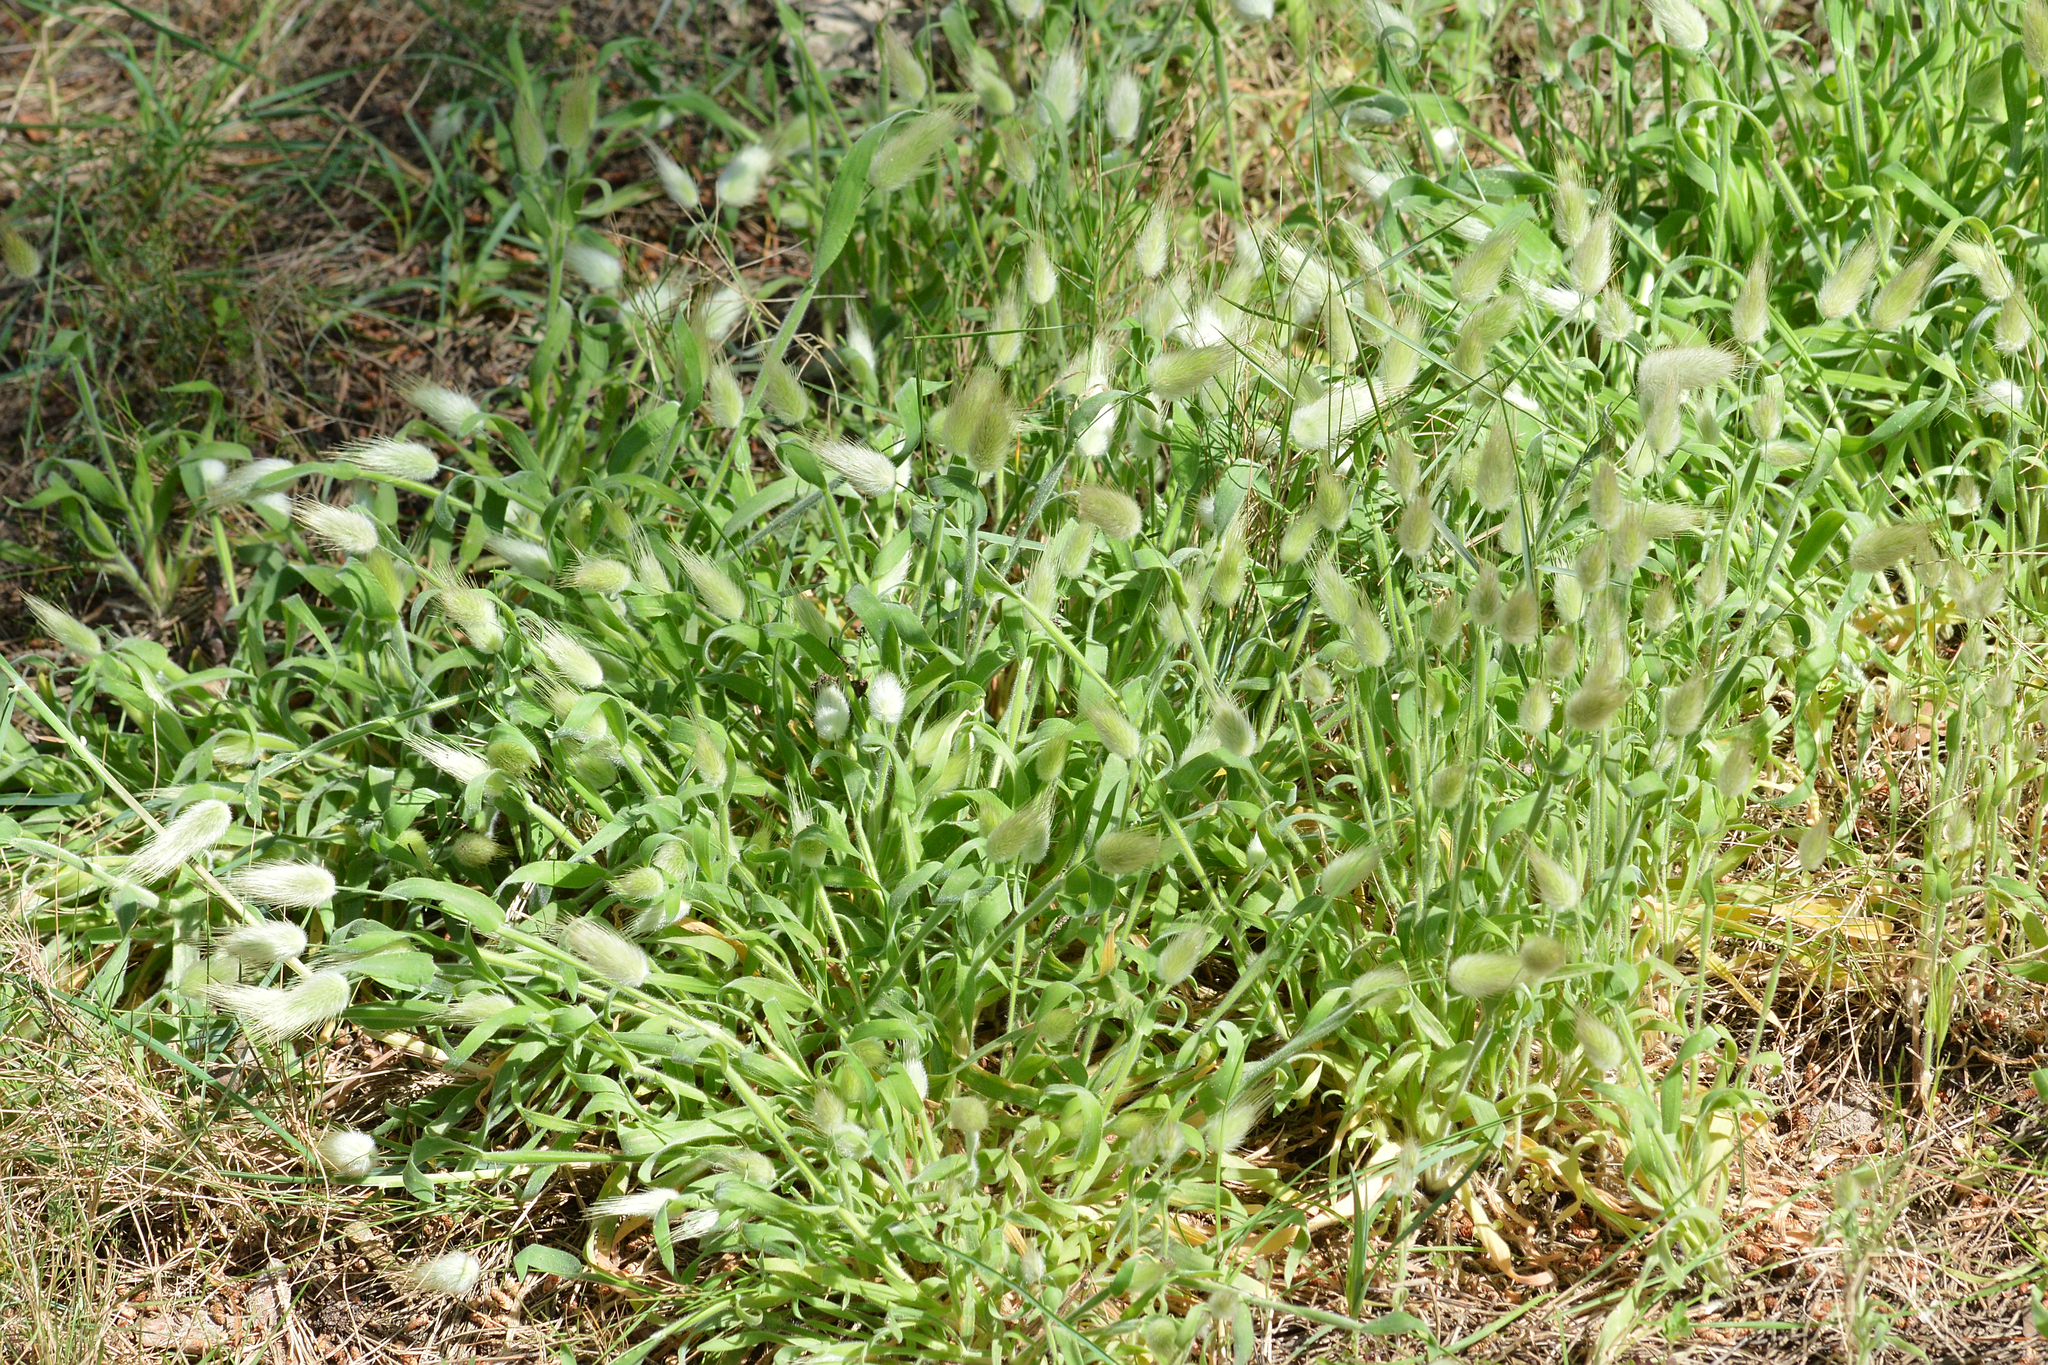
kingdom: Plantae
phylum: Tracheophyta
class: Liliopsida
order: Poales
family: Poaceae
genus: Lagurus
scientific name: Lagurus ovatus
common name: Hare's-tail
